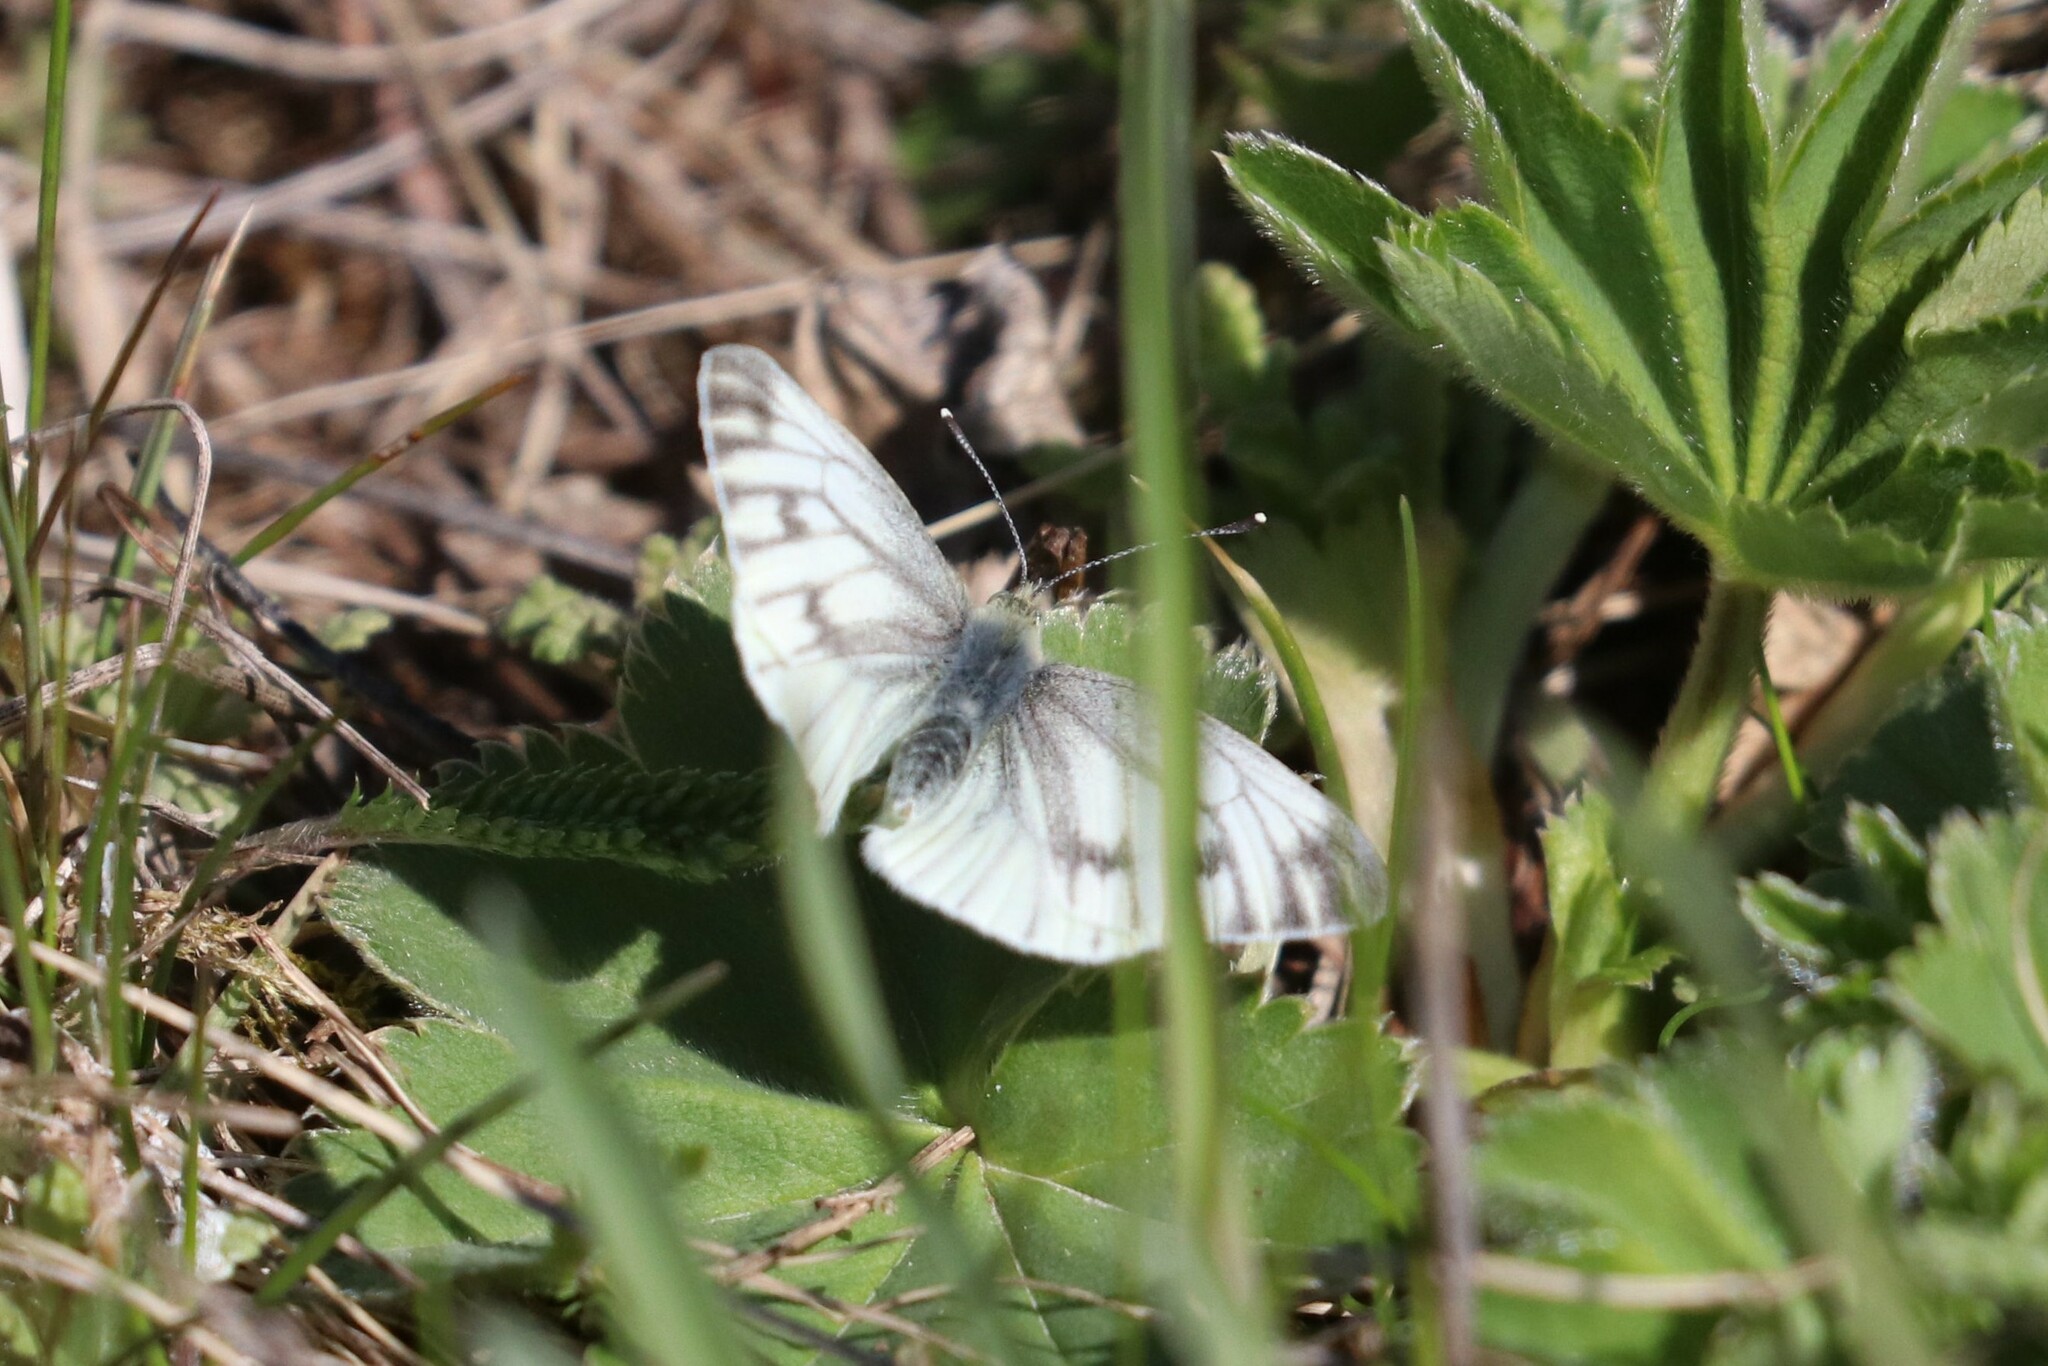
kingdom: Animalia
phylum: Arthropoda
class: Insecta
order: Lepidoptera
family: Pieridae
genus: Pieris
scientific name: Pieris napi
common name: Green-veined white
